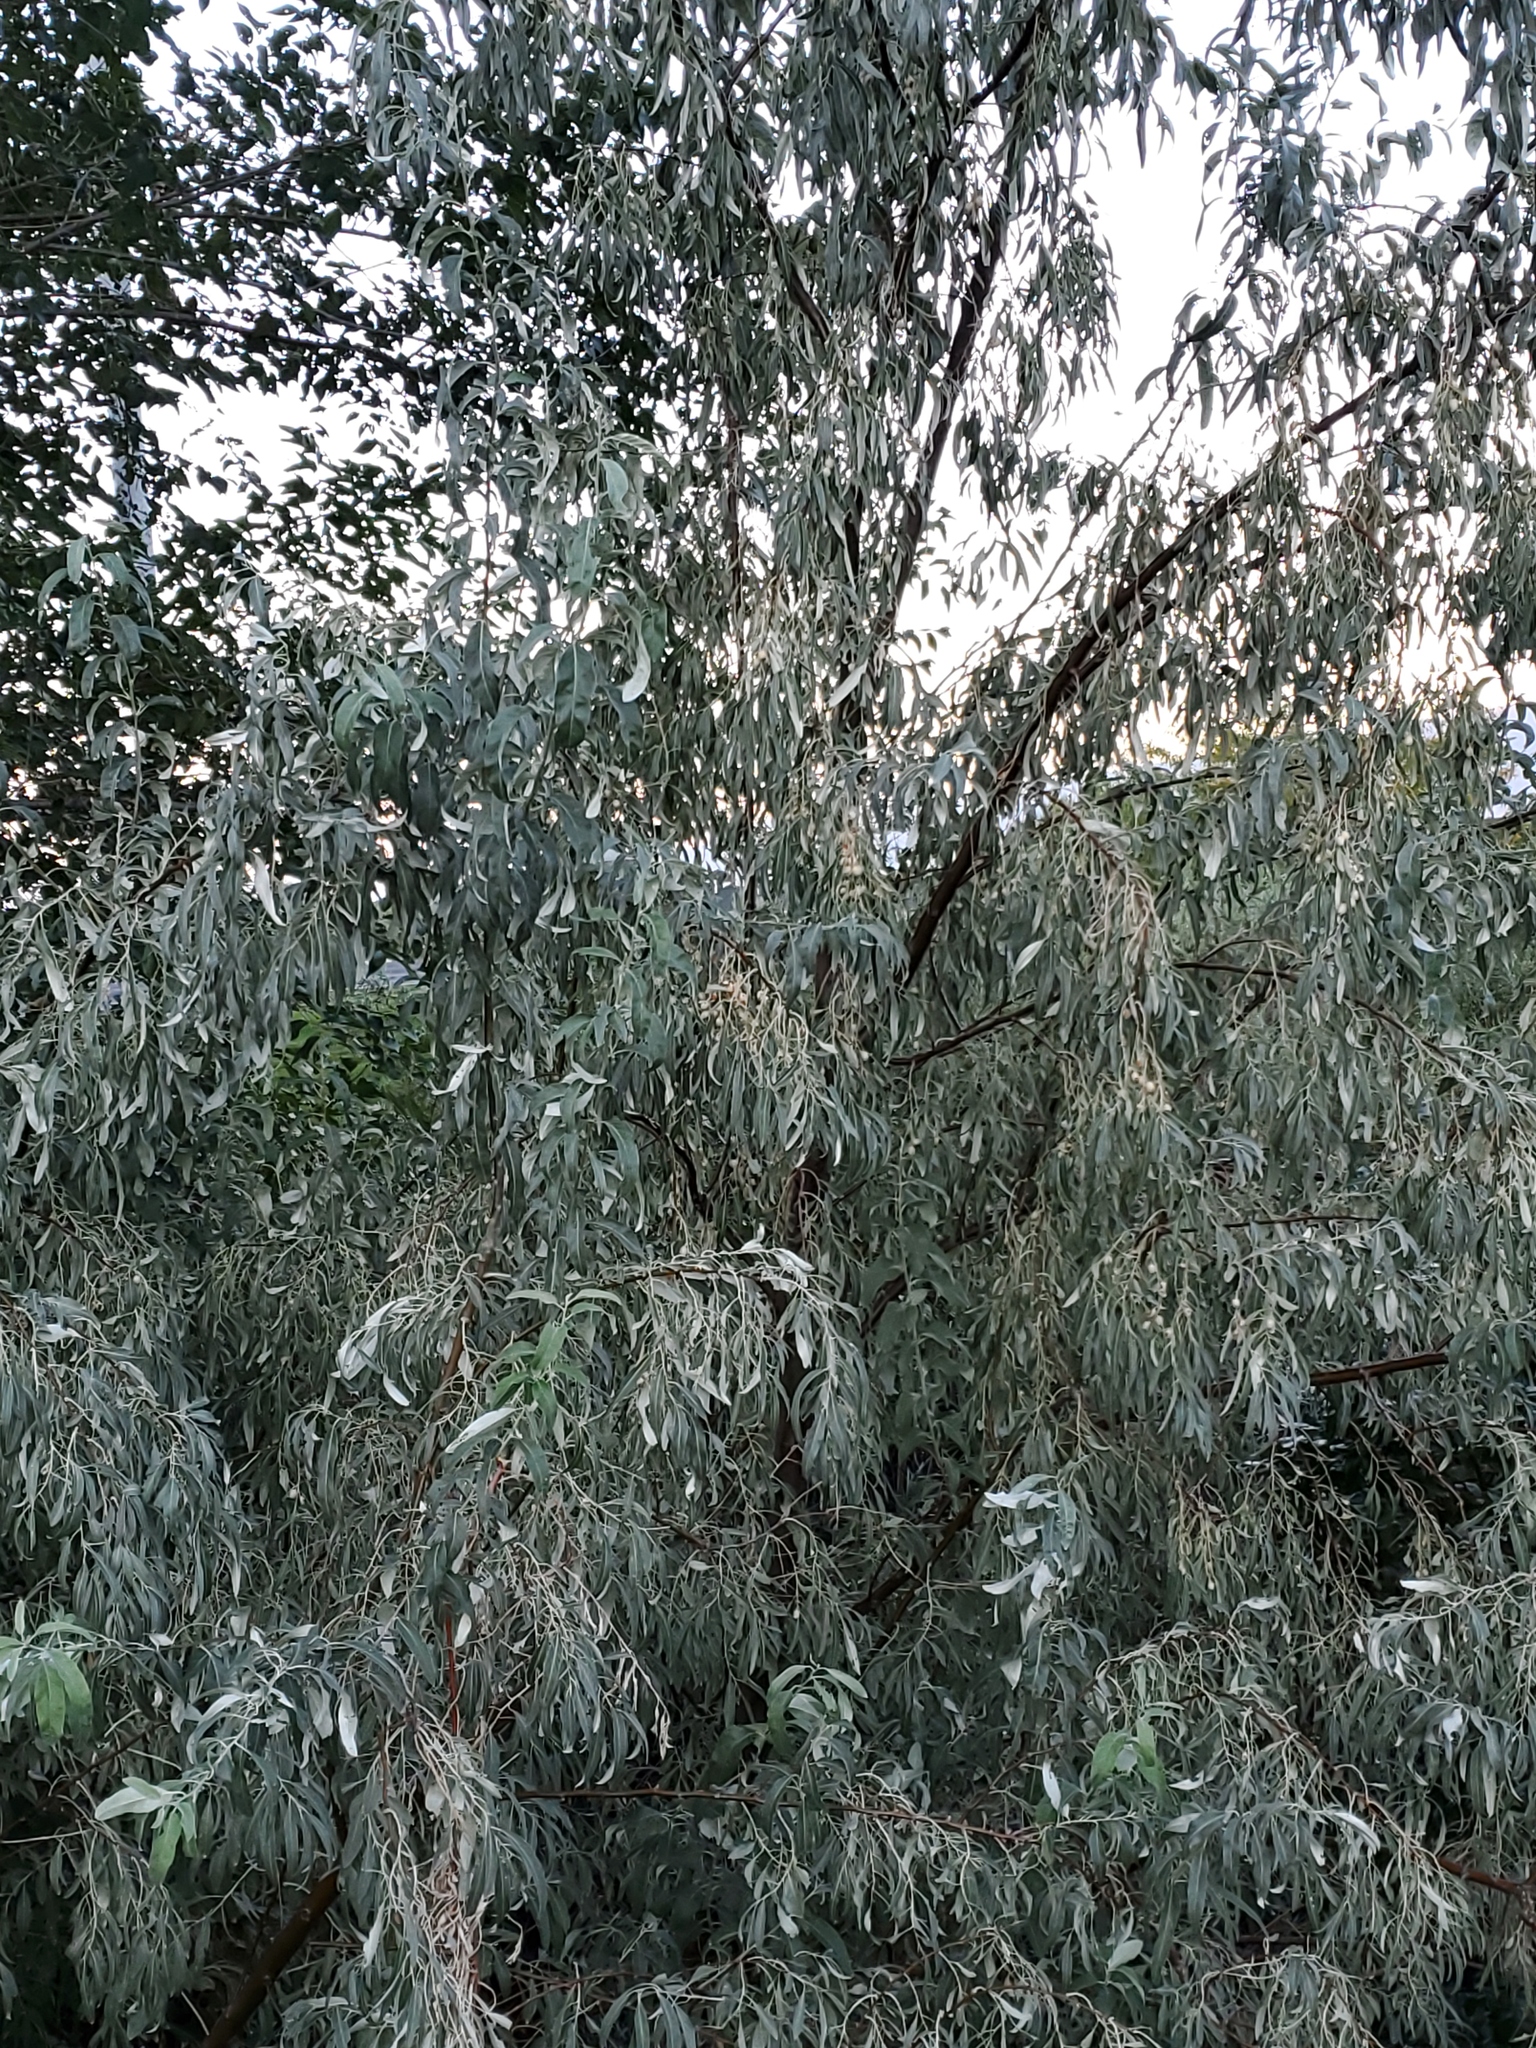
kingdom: Plantae
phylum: Tracheophyta
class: Magnoliopsida
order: Rosales
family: Elaeagnaceae
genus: Elaeagnus
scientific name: Elaeagnus angustifolia
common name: Russian olive
